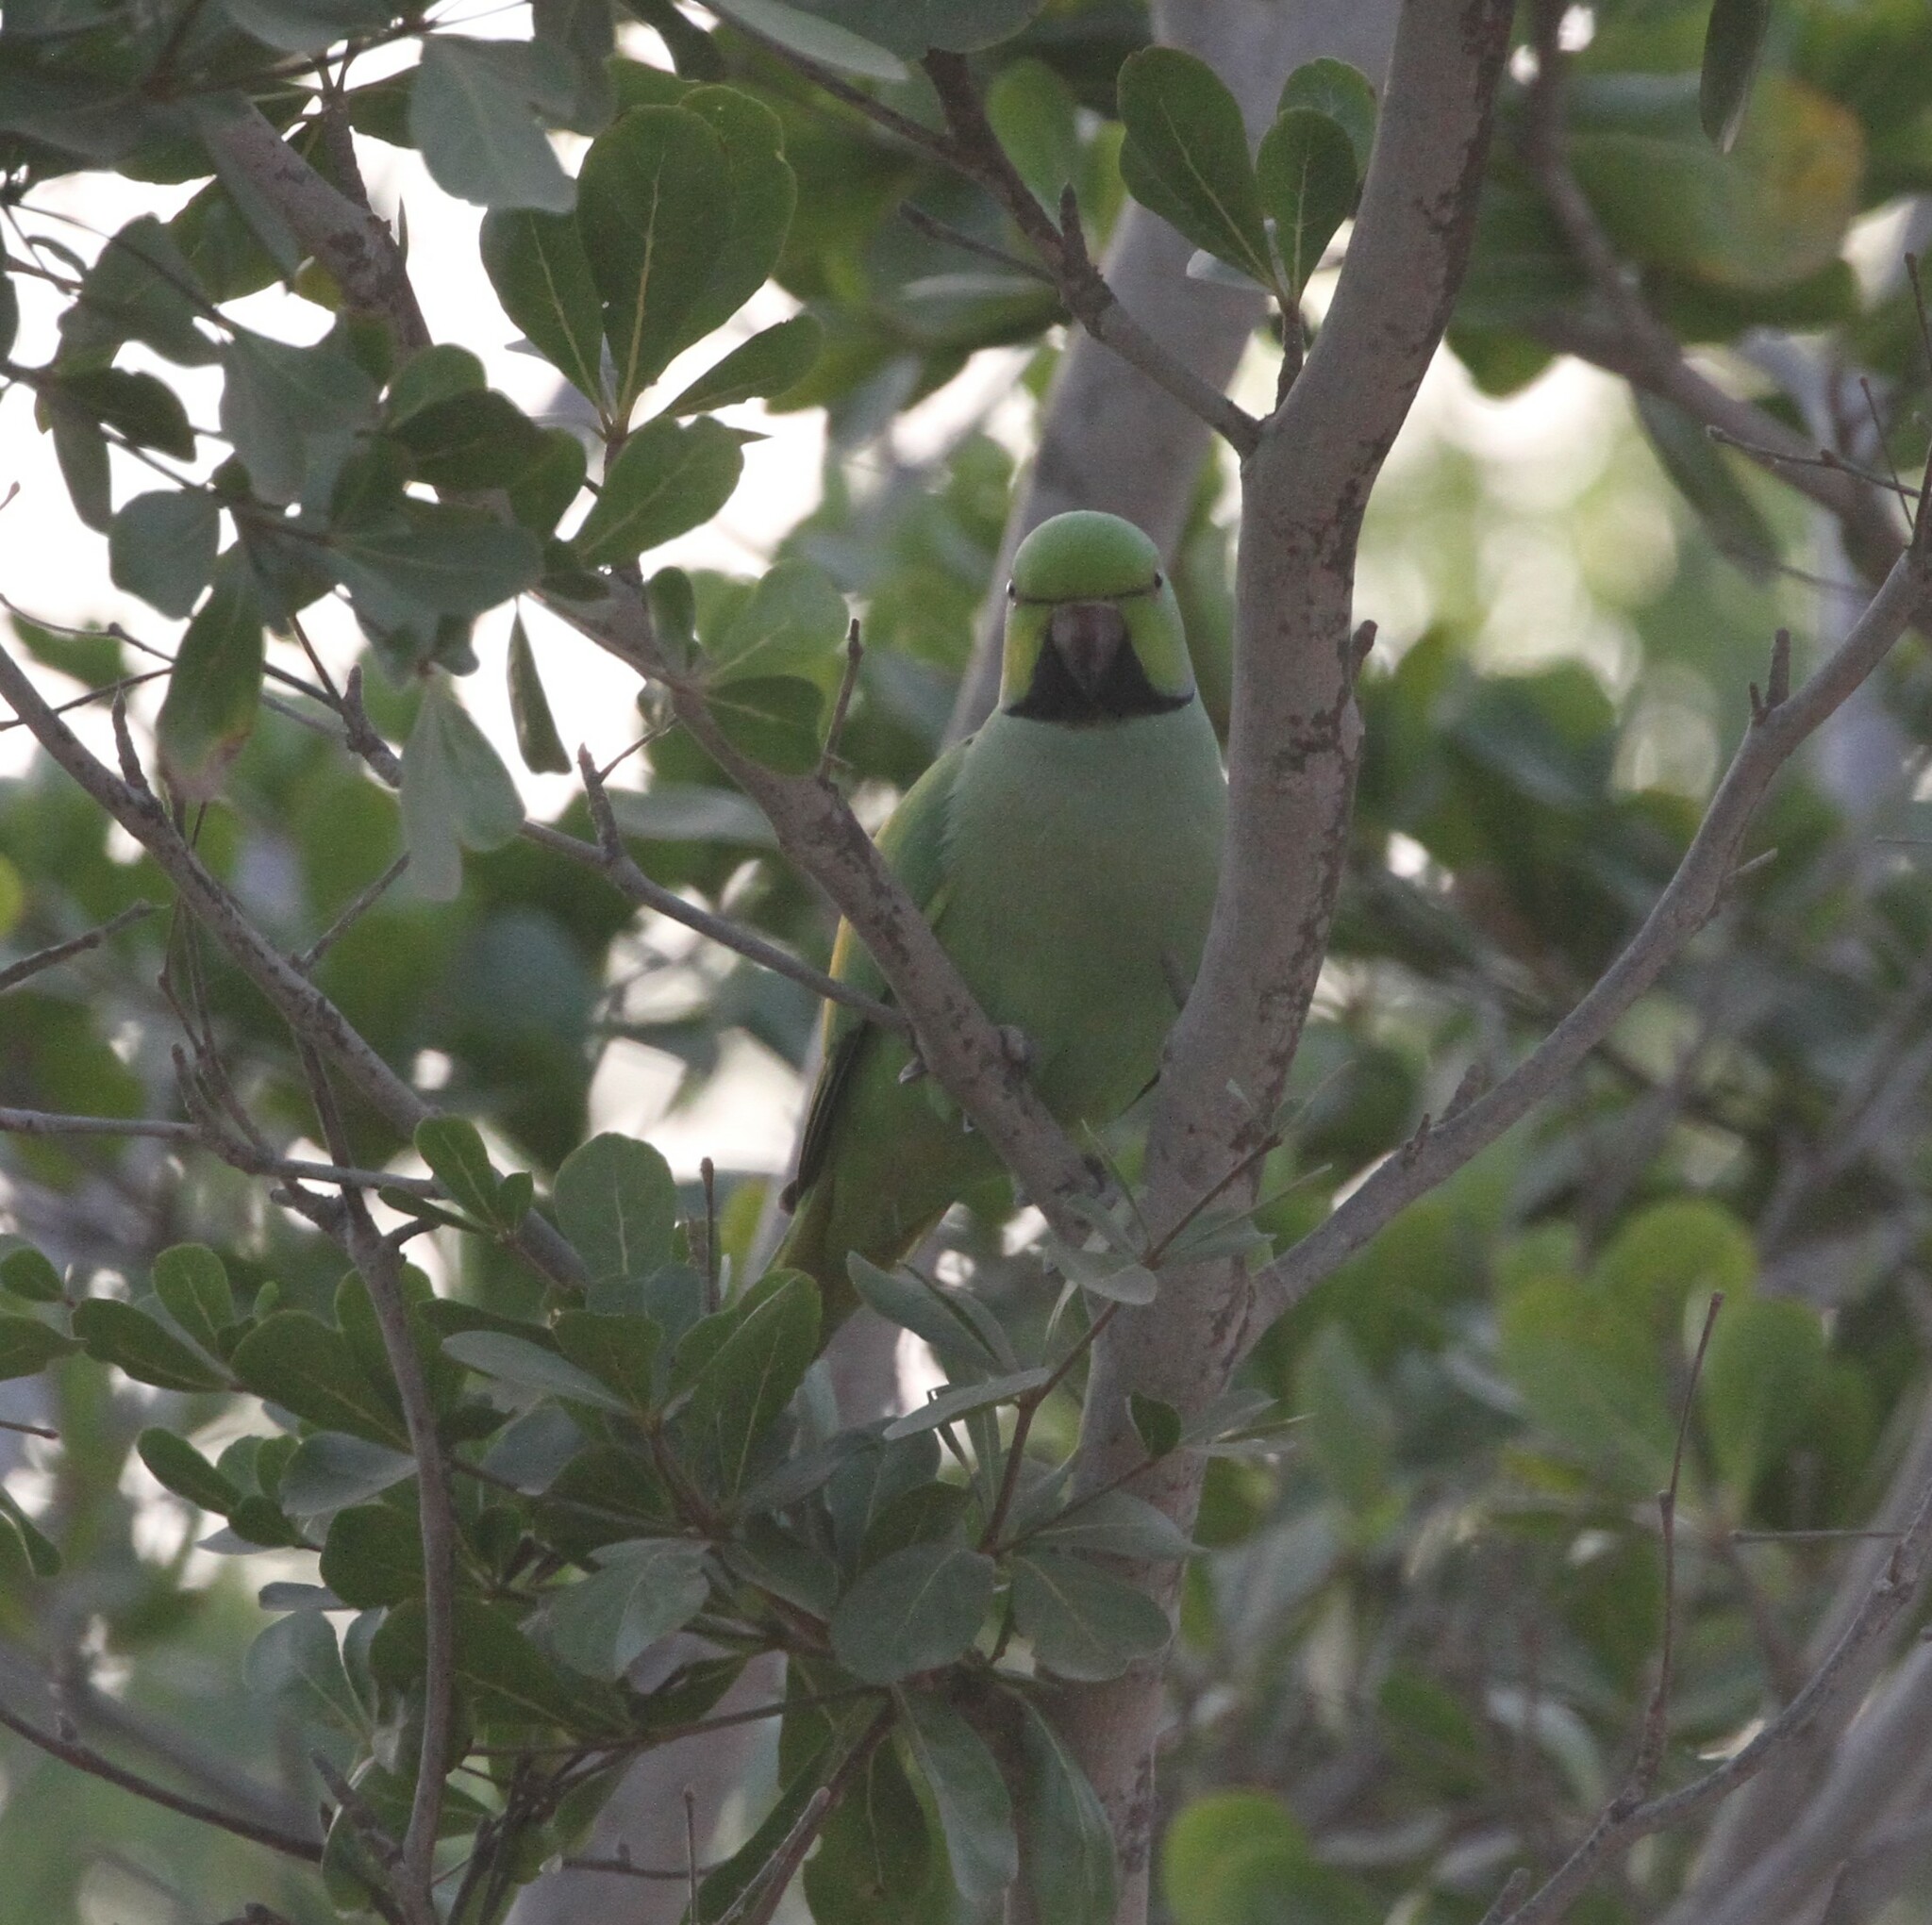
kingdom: Animalia
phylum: Chordata
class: Aves
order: Psittaciformes
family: Psittacidae
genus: Psittacula
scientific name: Psittacula krameri
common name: Rose-ringed parakeet
